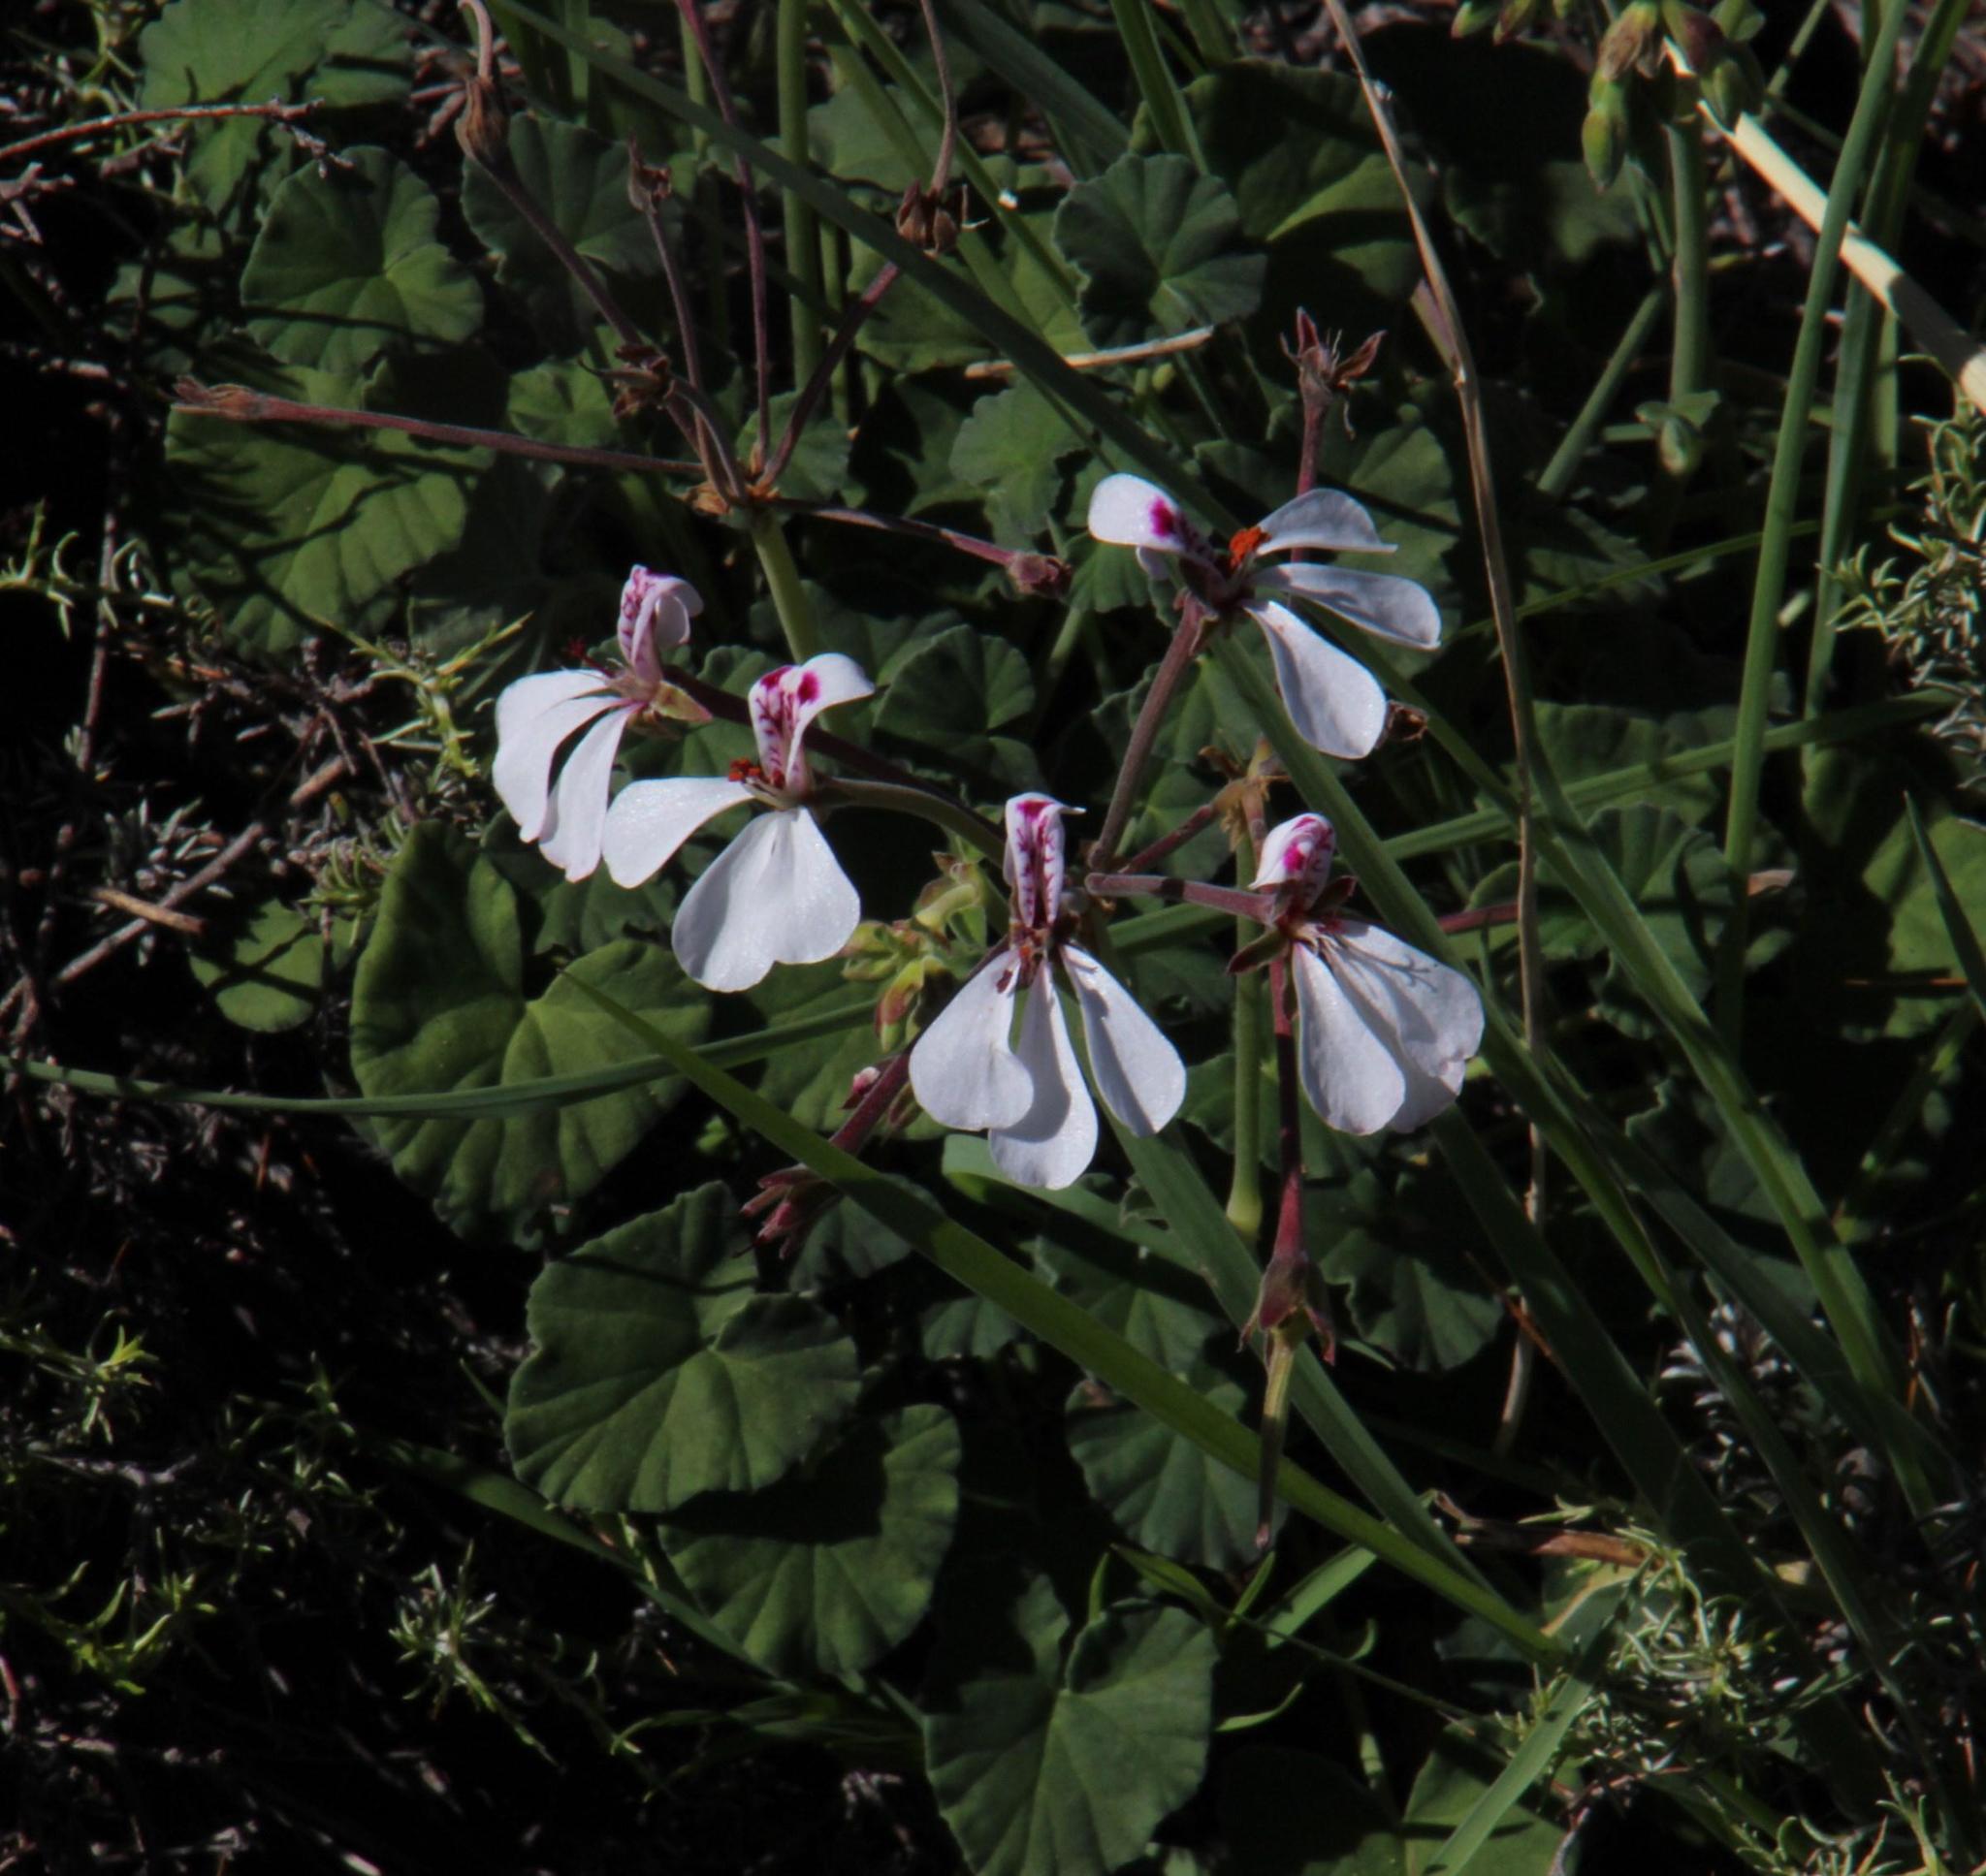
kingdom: Plantae
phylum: Tracheophyta
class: Magnoliopsida
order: Geraniales
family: Geraniaceae
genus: Pelargonium
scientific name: Pelargonium dichondrifolium
